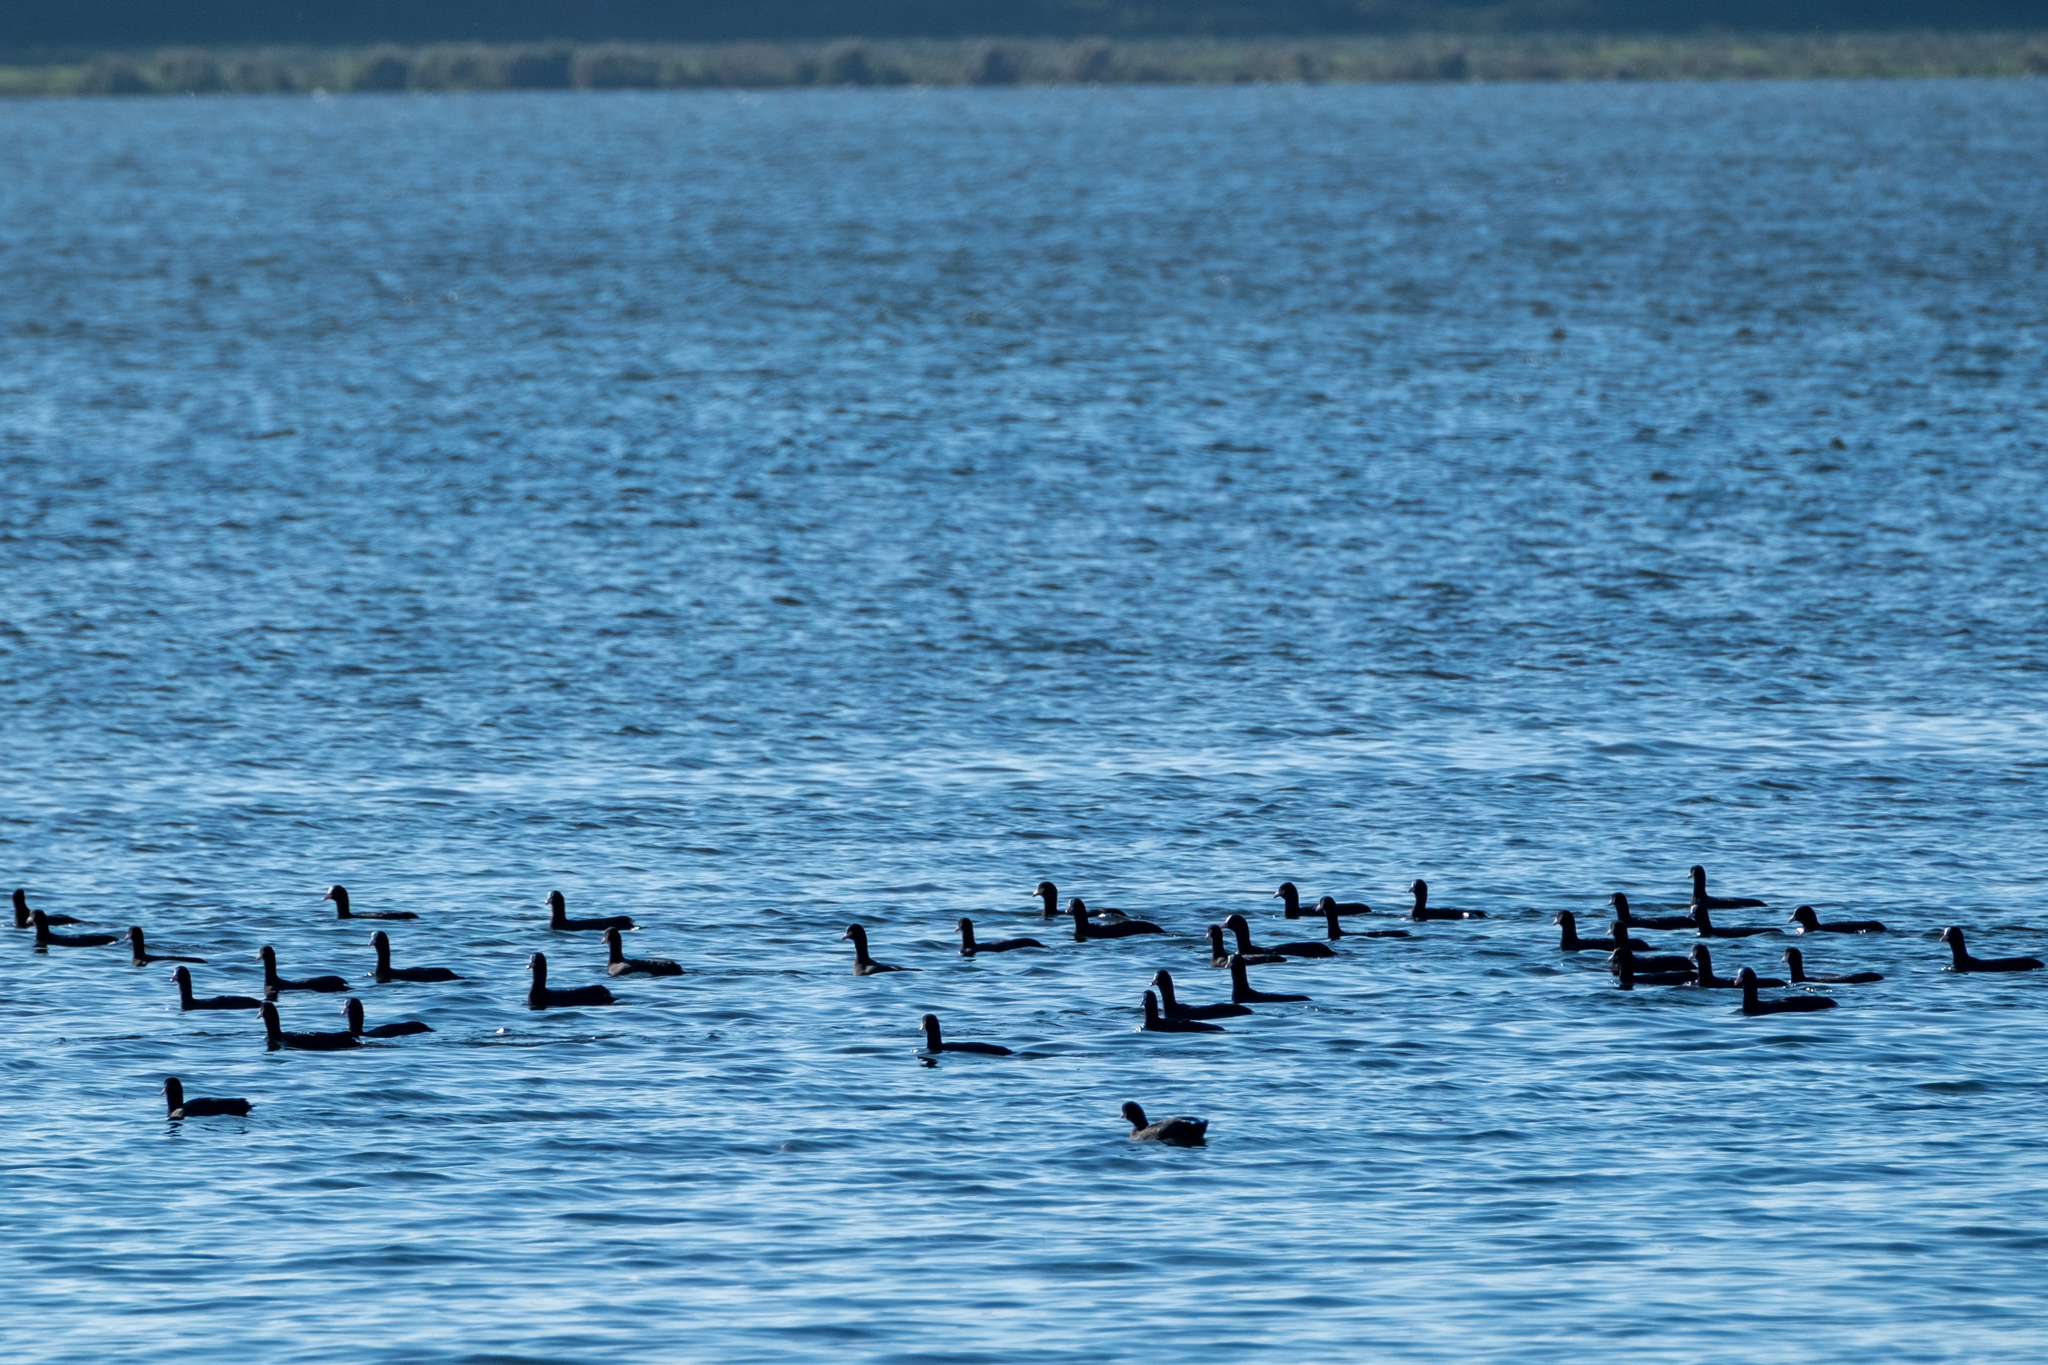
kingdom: Animalia
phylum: Chordata
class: Aves
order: Gruiformes
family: Rallidae
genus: Fulica
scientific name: Fulica atra
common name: Eurasian coot
